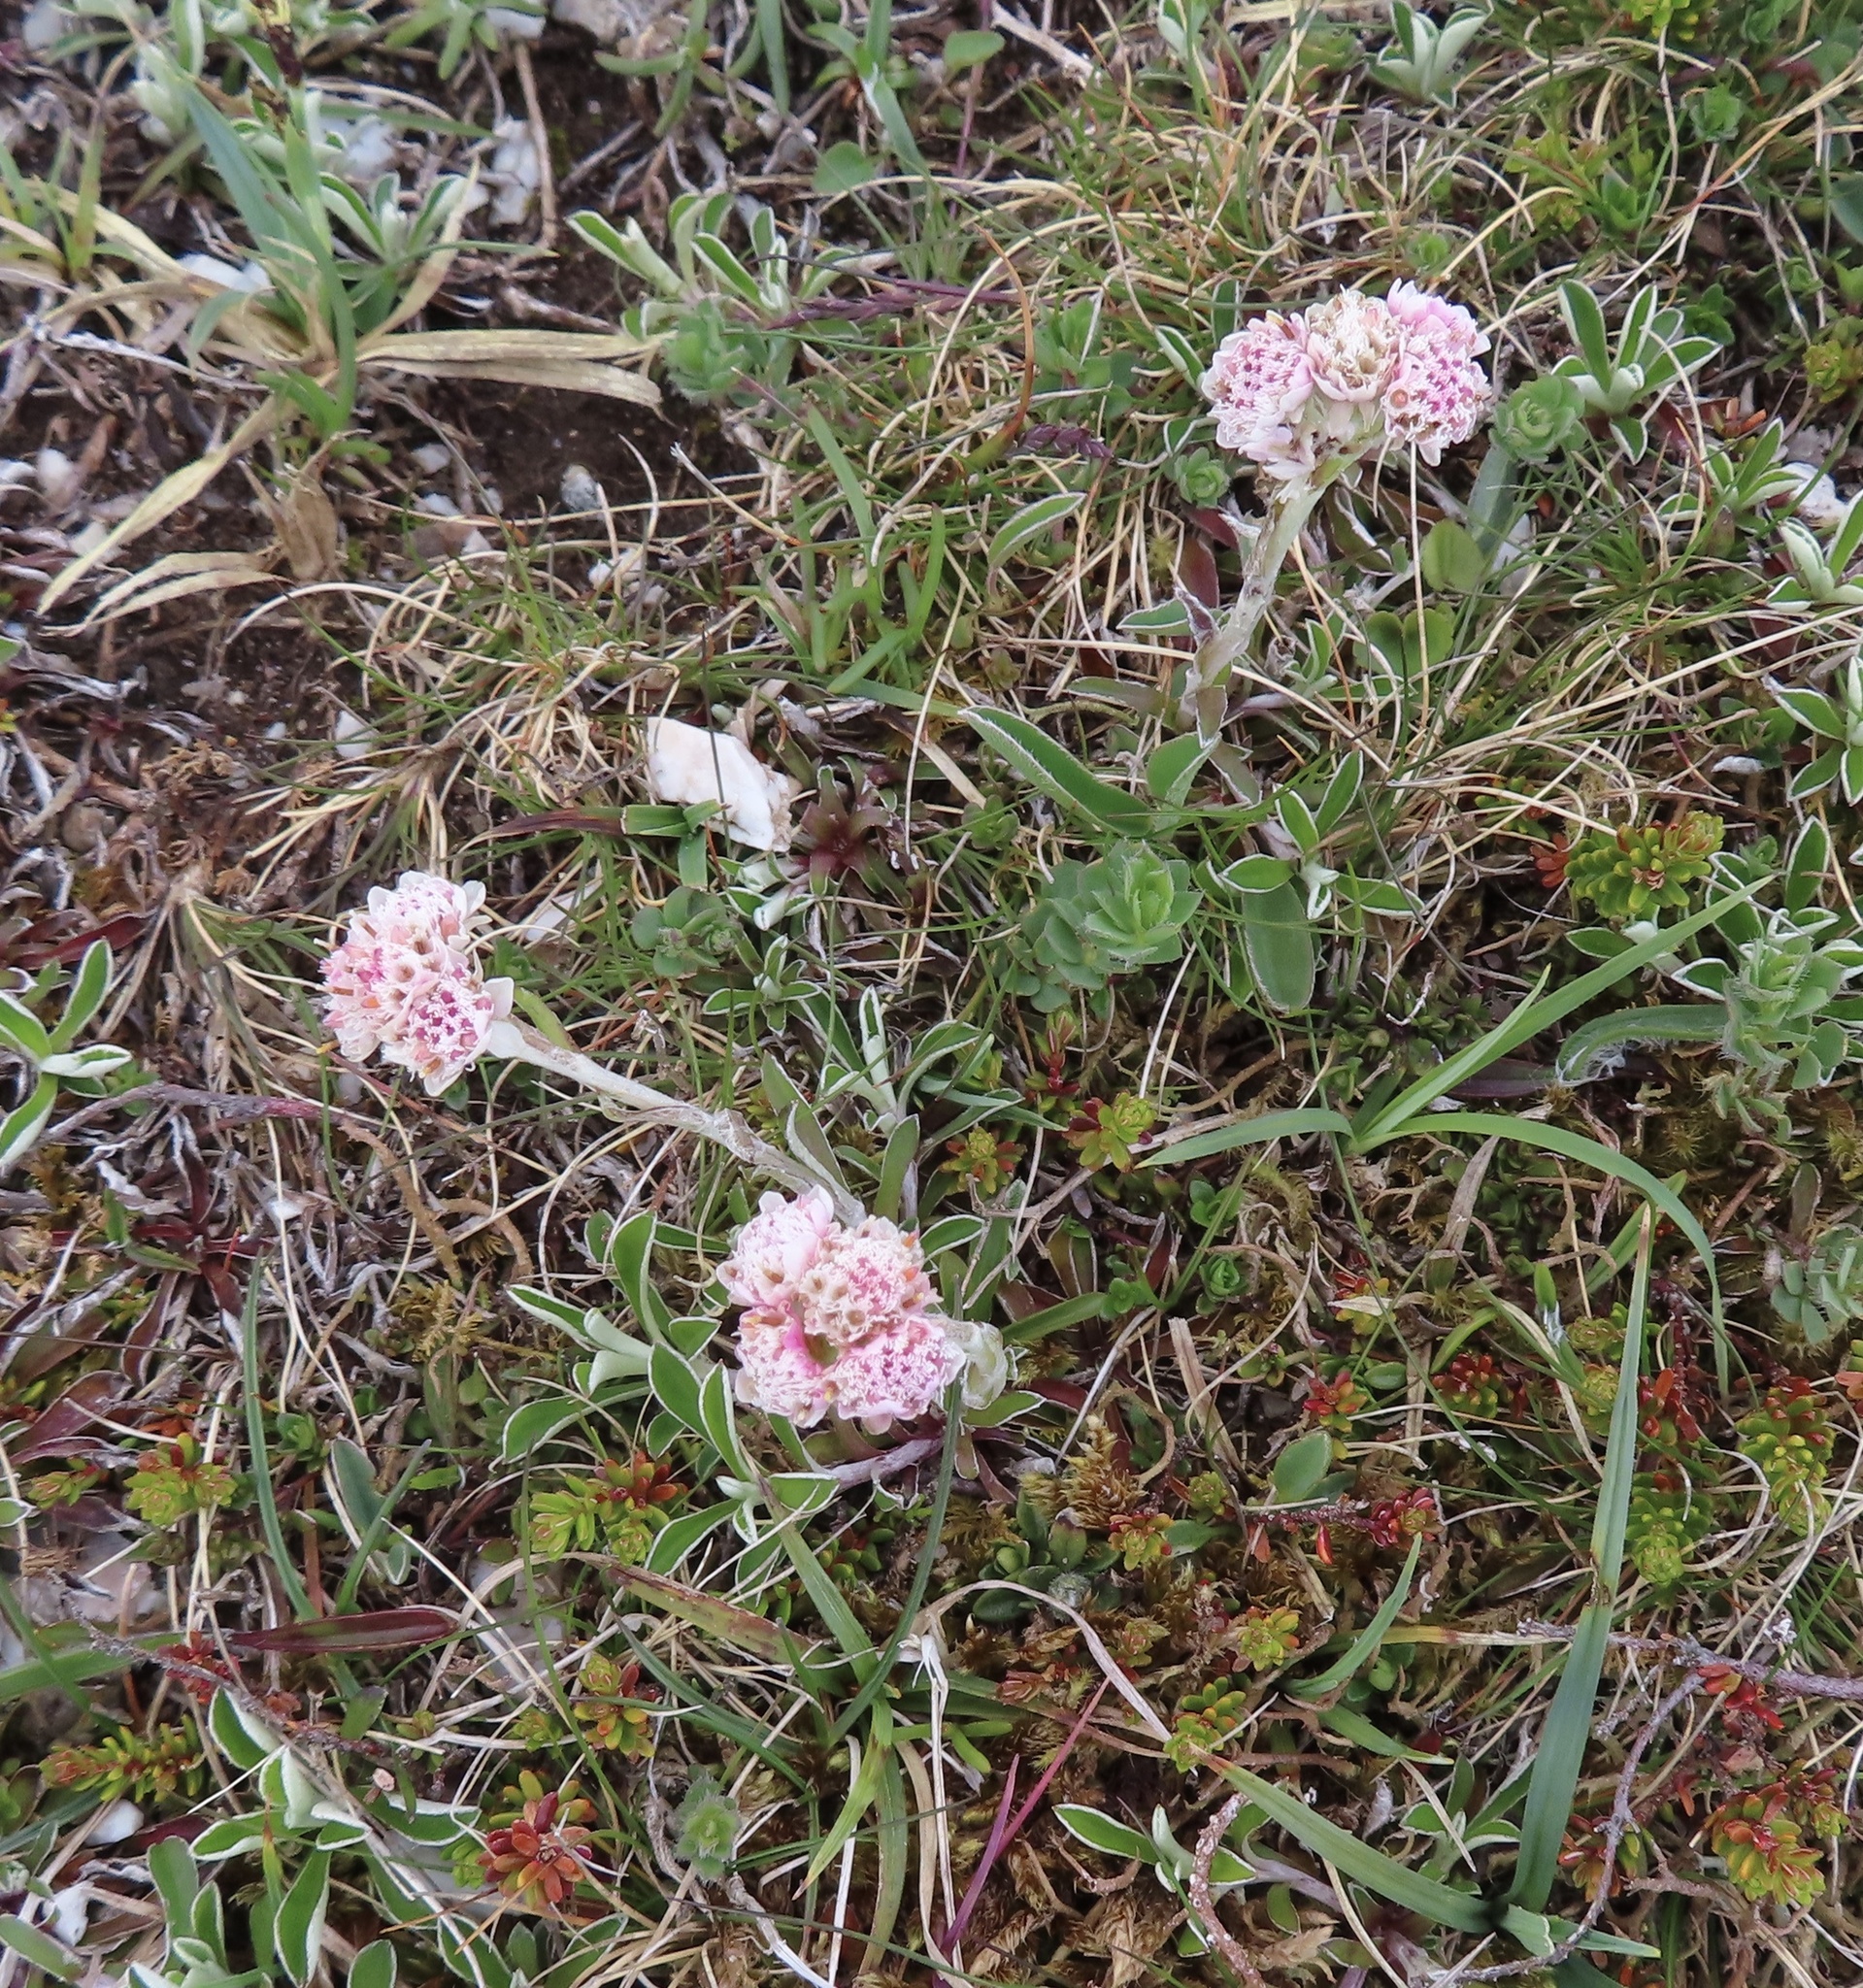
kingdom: Plantae
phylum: Tracheophyta
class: Magnoliopsida
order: Asterales
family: Asteraceae
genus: Antennaria
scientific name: Antennaria dioica
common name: Mountain everlasting
